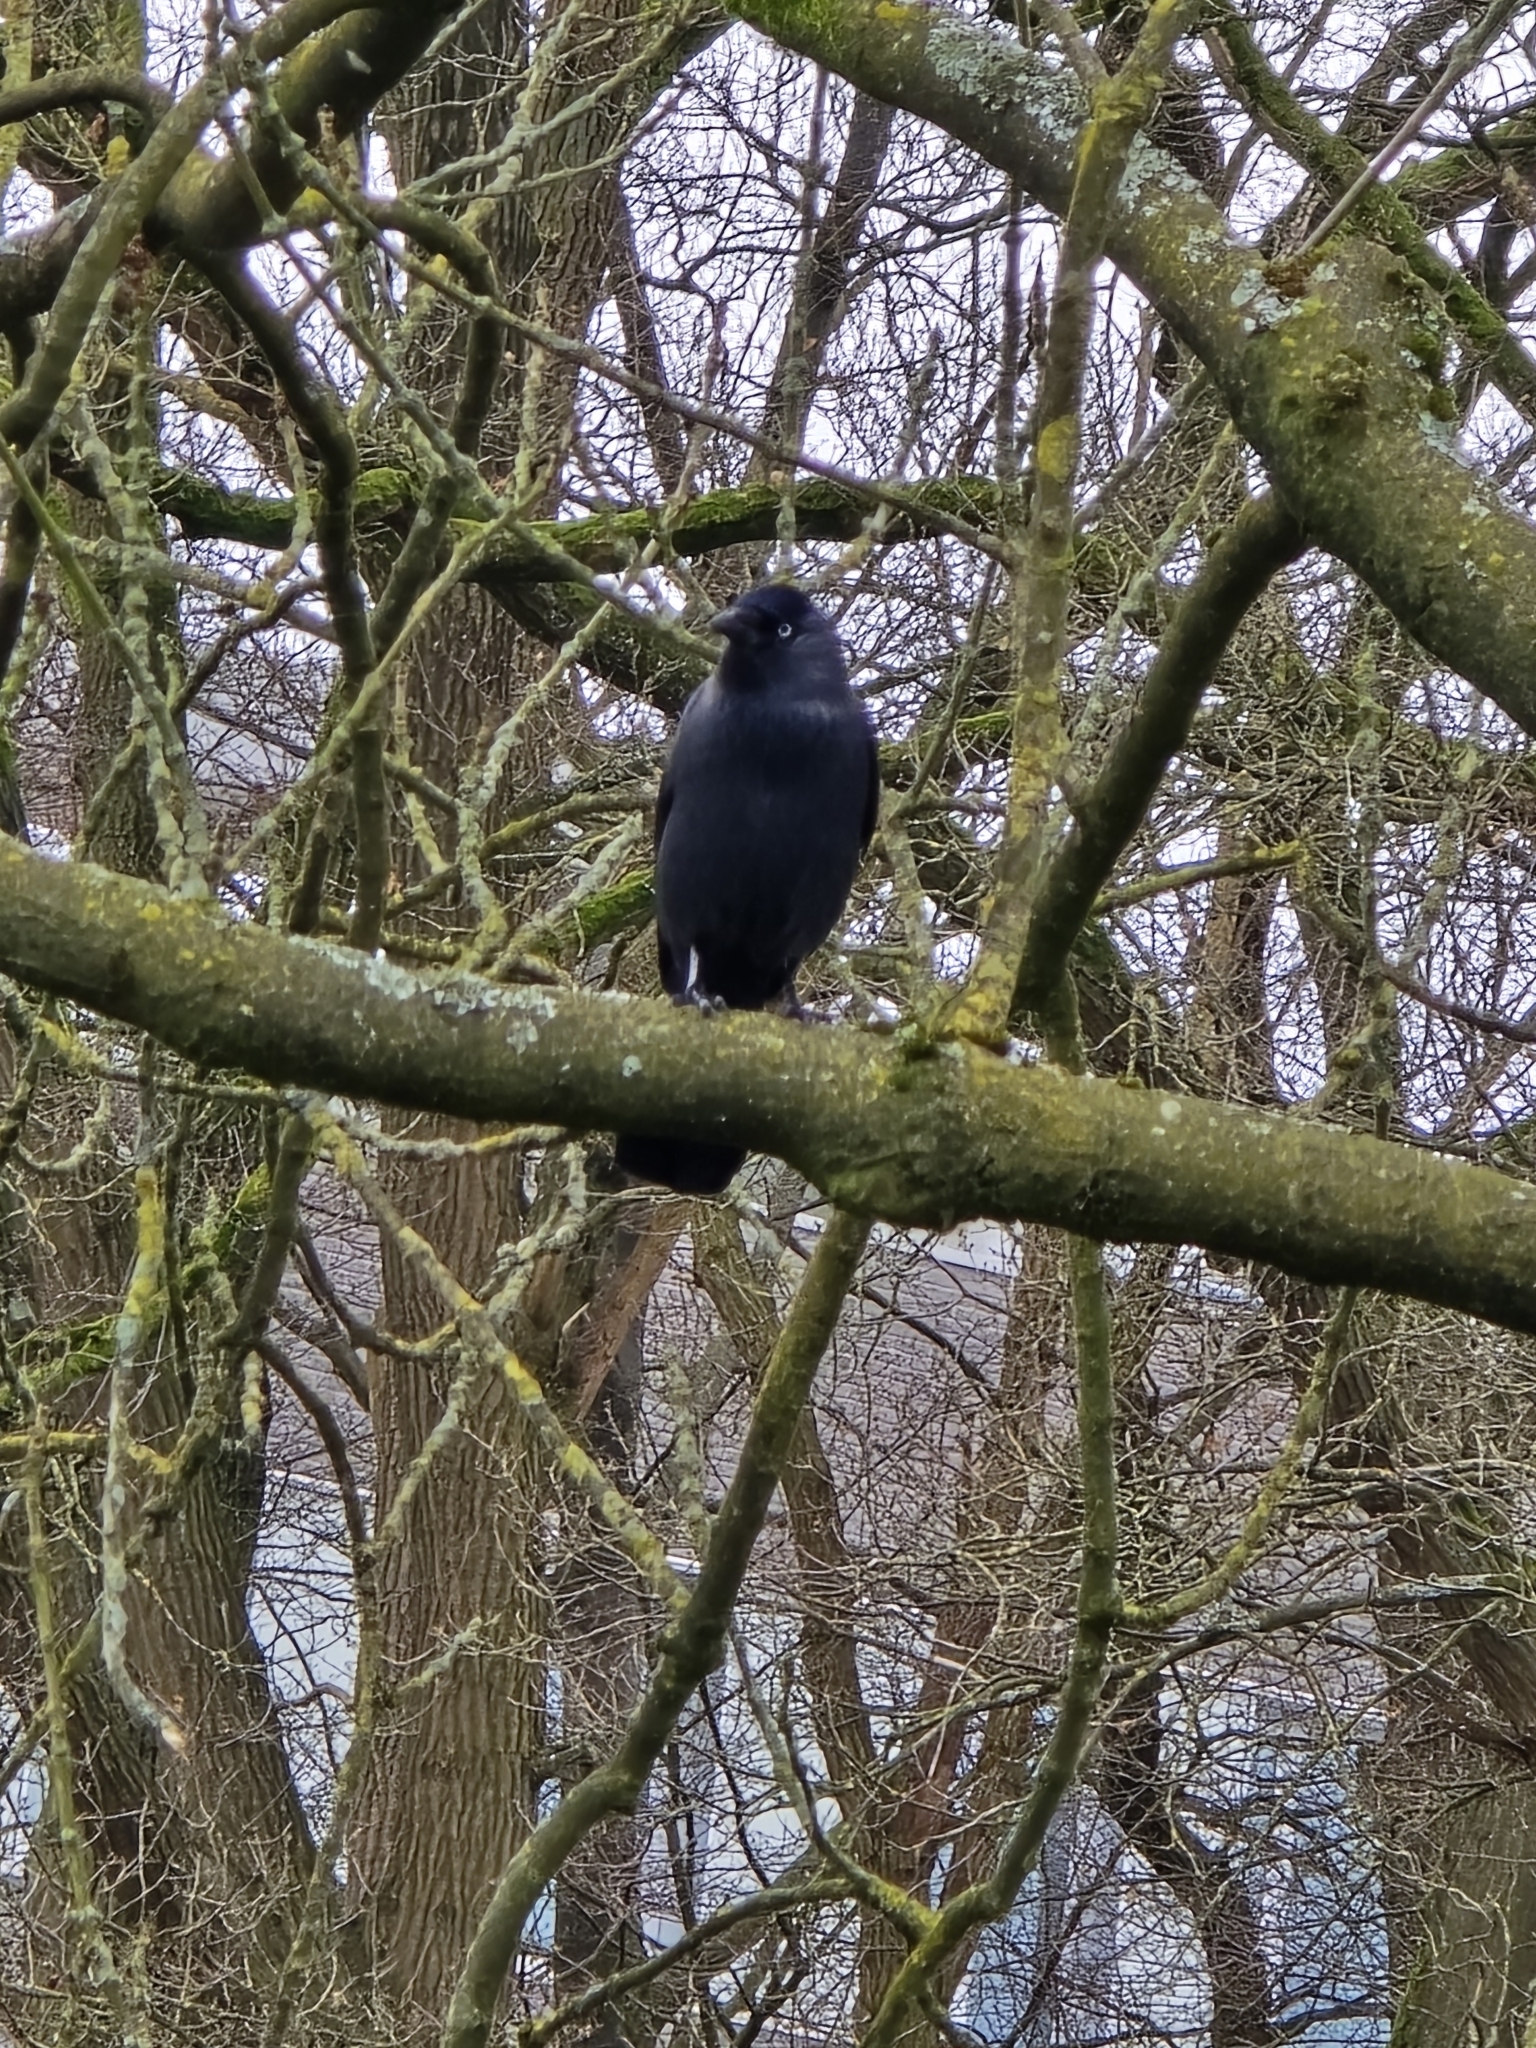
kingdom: Animalia
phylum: Chordata
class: Aves
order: Passeriformes
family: Corvidae
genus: Coloeus
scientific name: Coloeus monedula
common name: Western jackdaw
